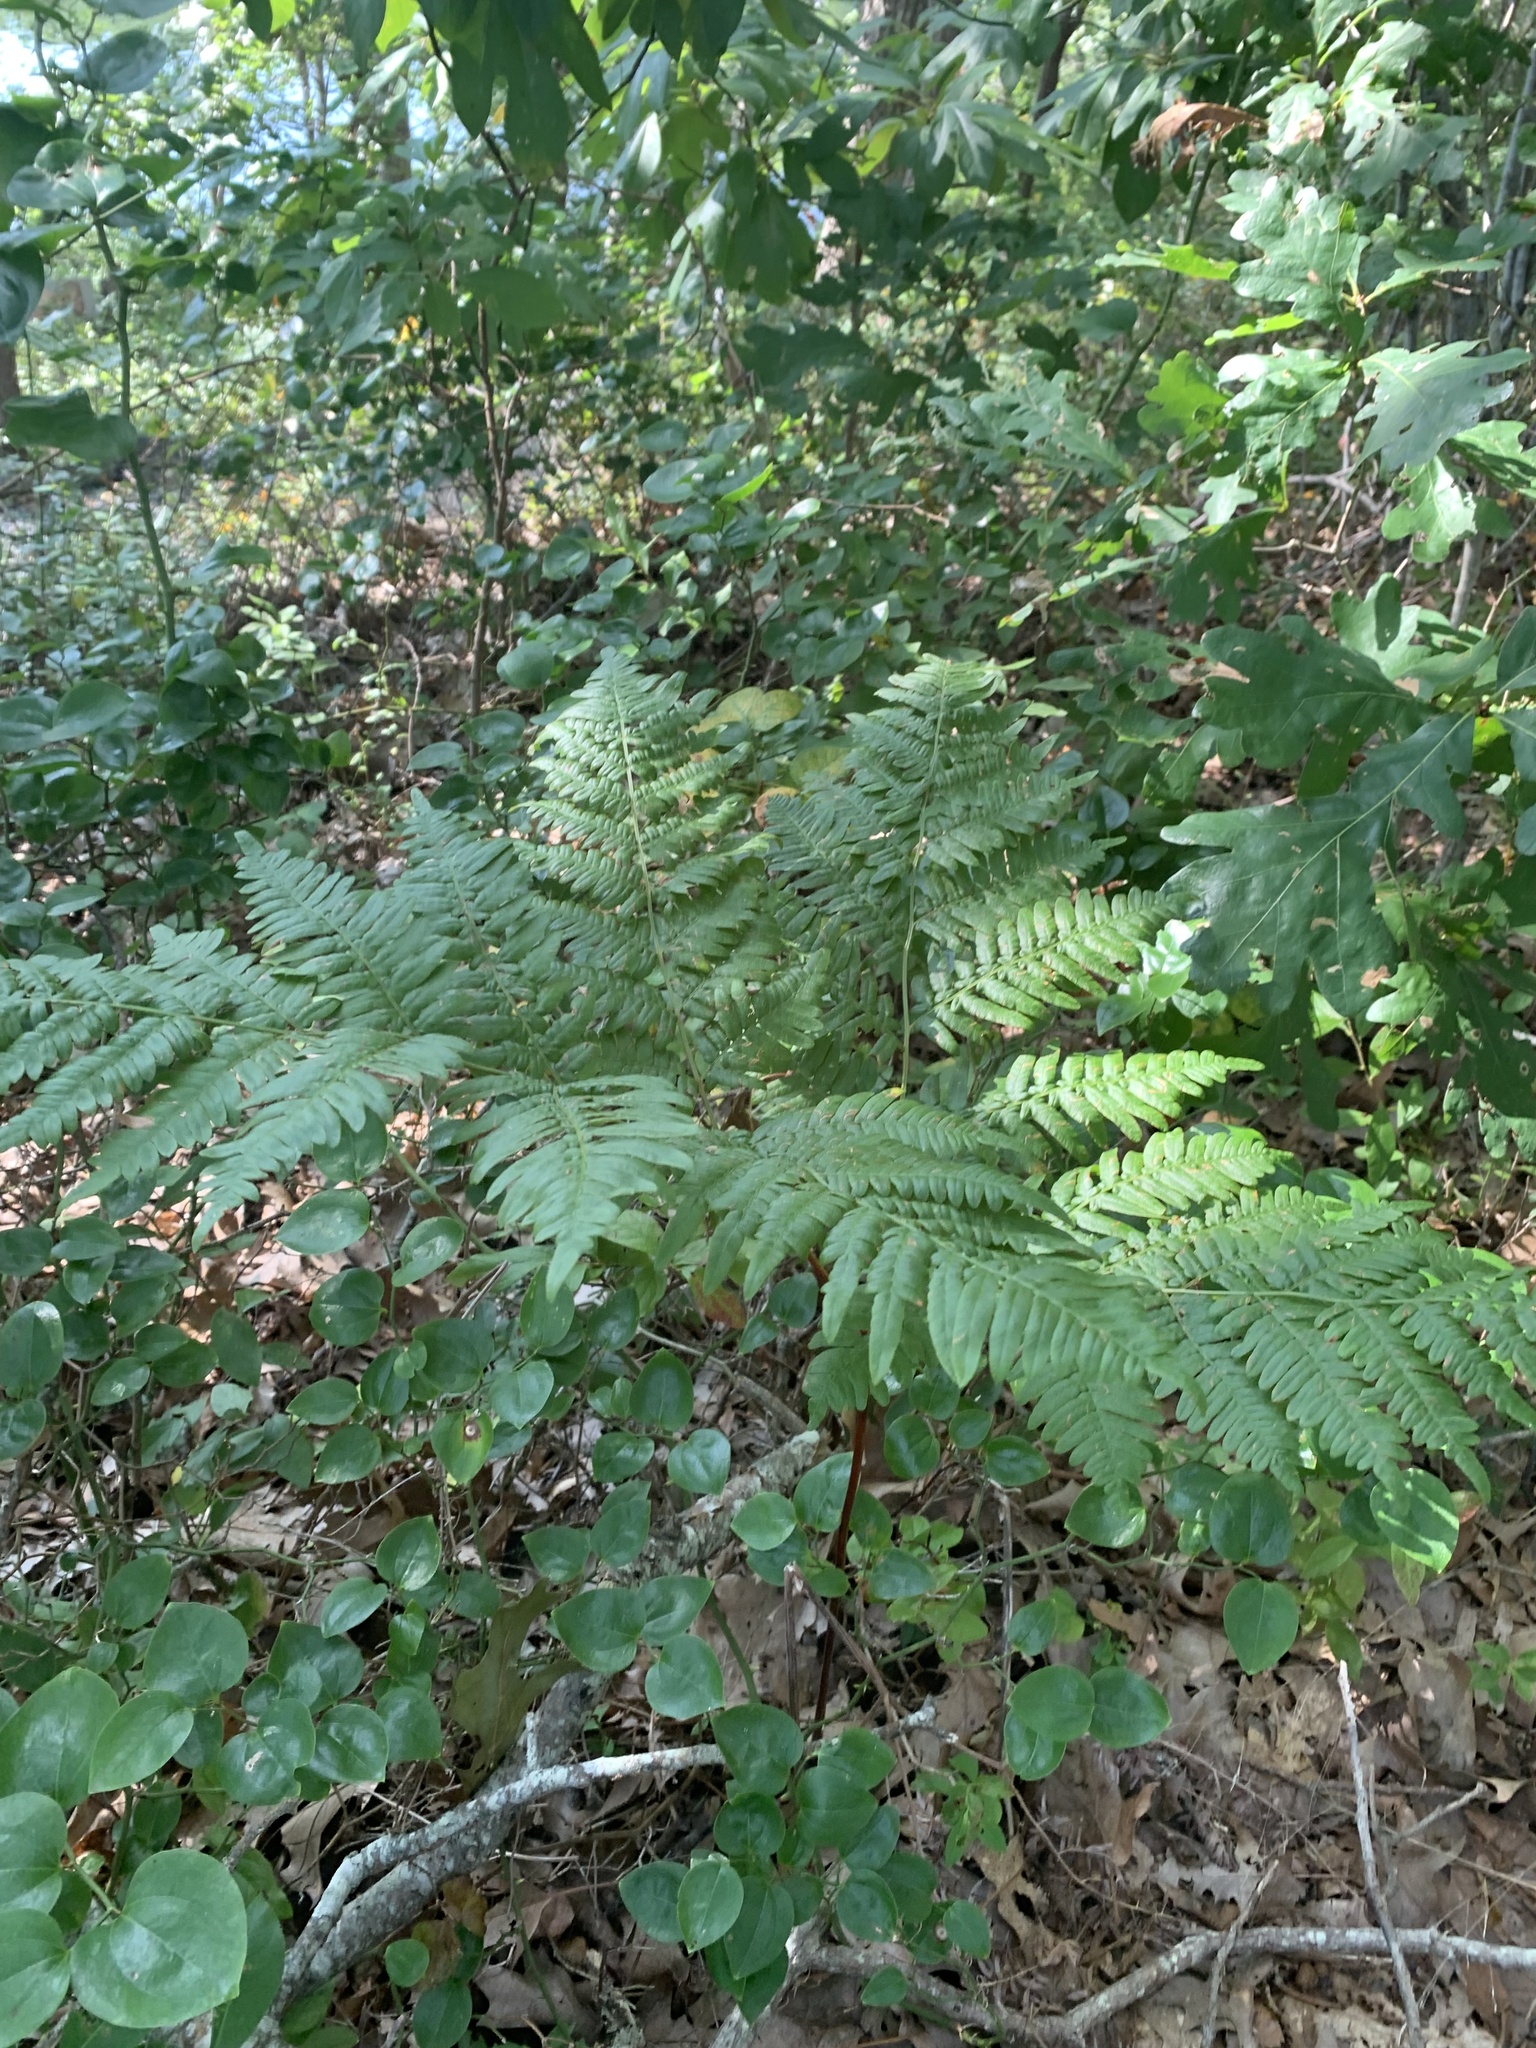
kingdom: Plantae
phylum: Tracheophyta
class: Polypodiopsida
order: Polypodiales
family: Dennstaedtiaceae
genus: Pteridium
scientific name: Pteridium aquilinum
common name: Bracken
